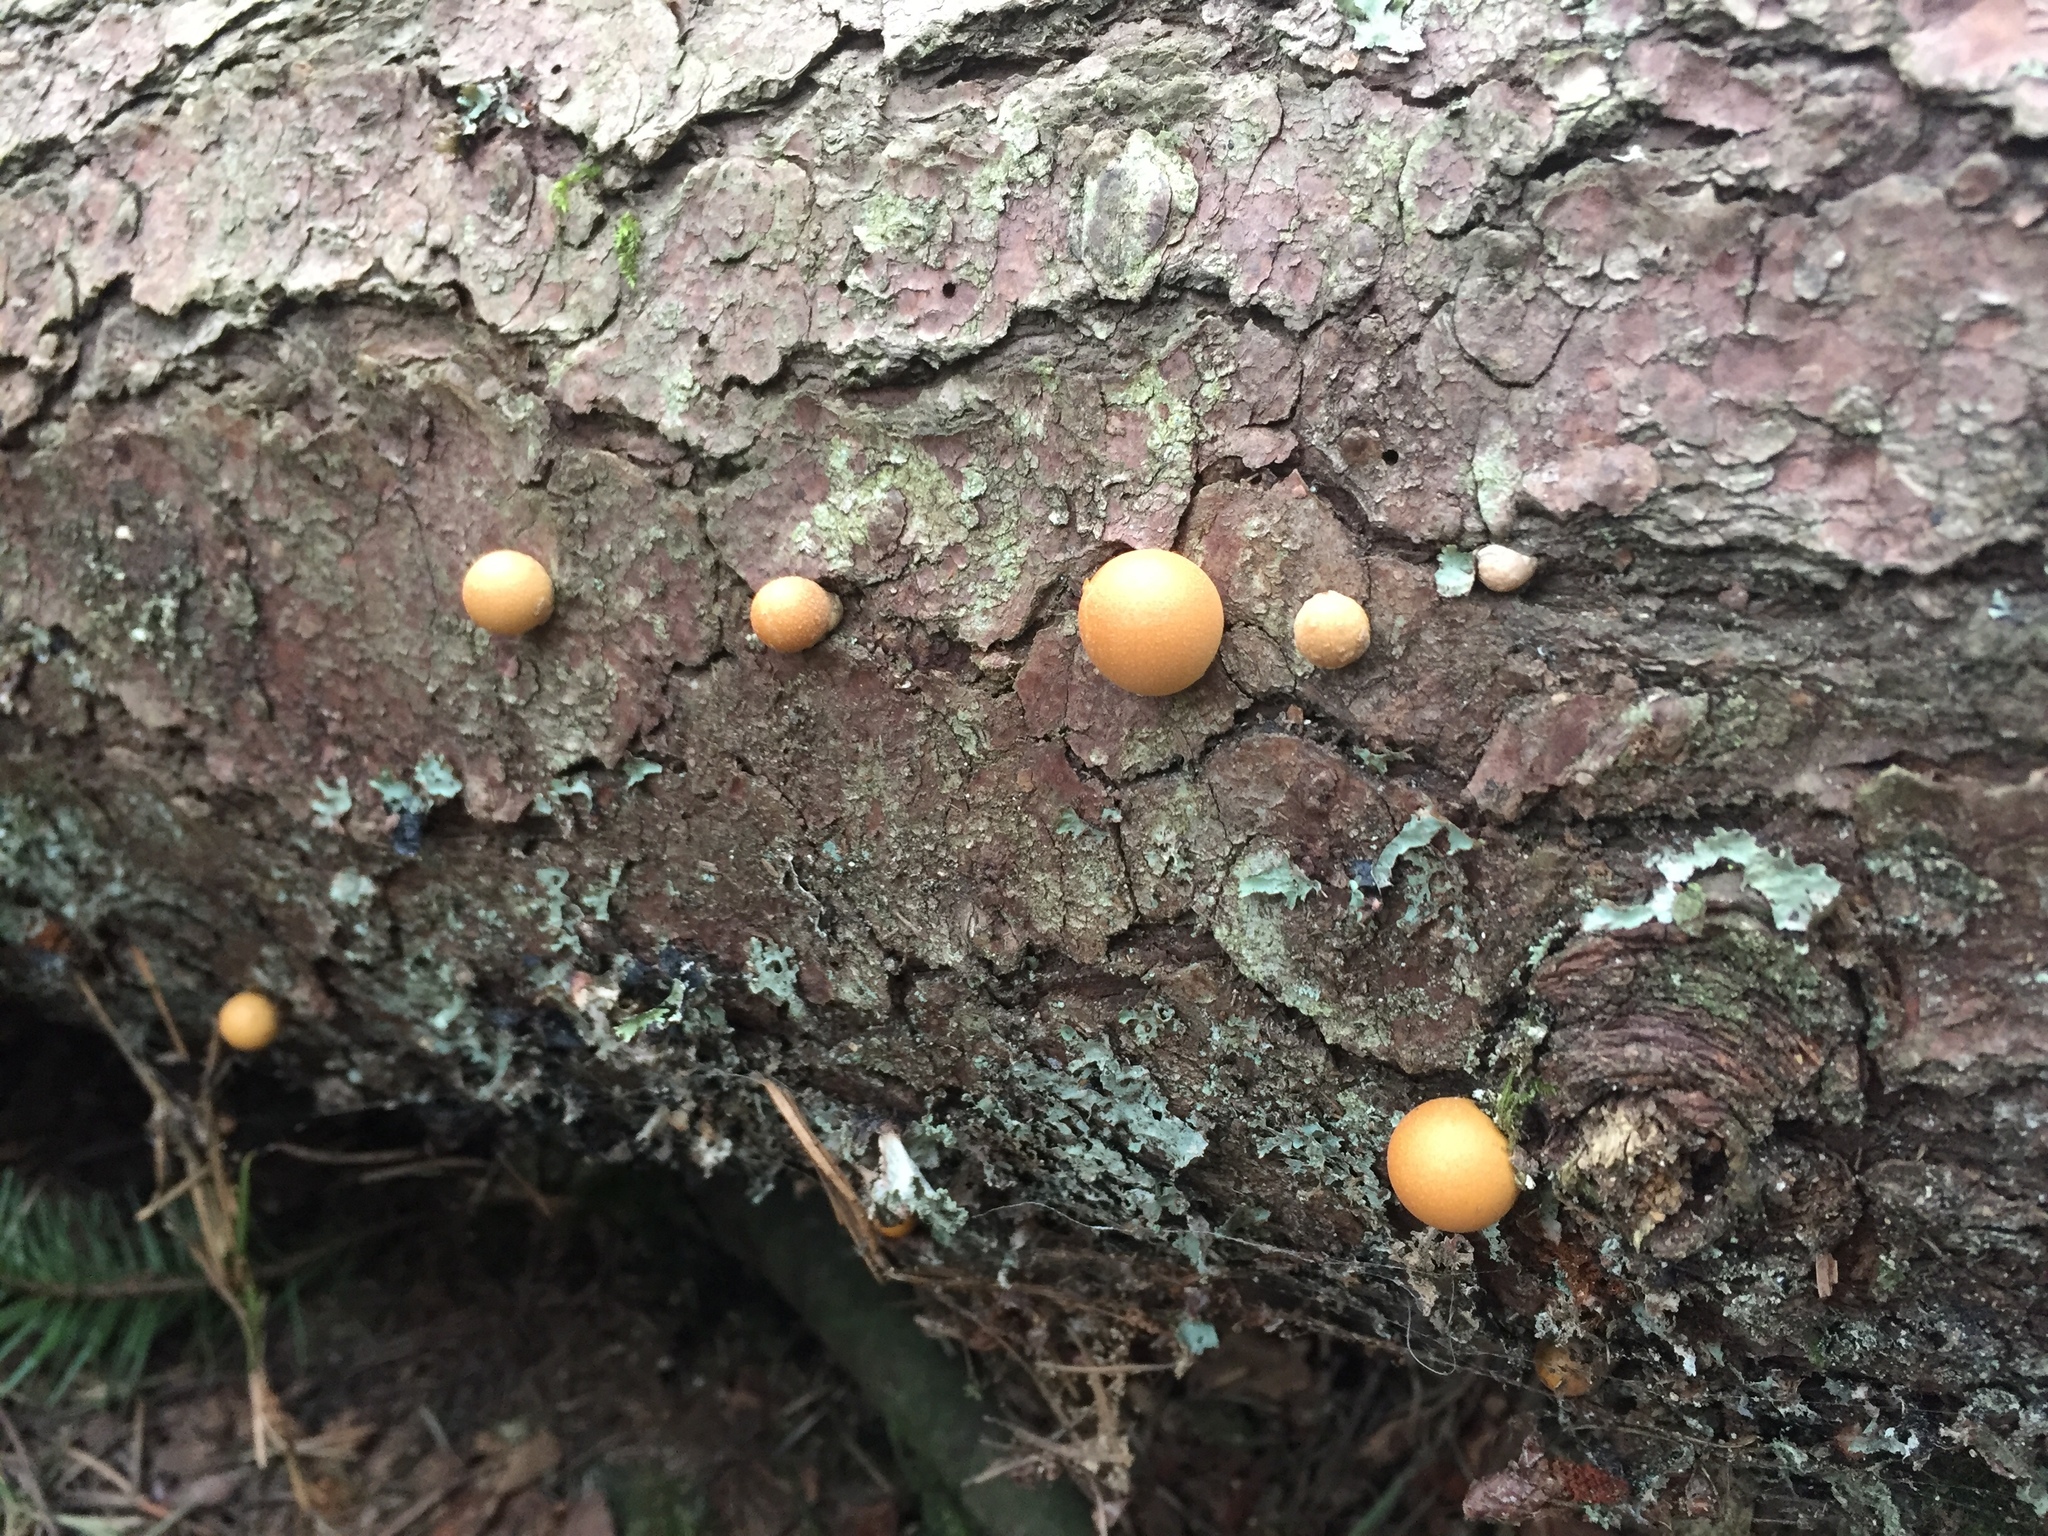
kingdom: Fungi
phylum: Basidiomycota
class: Agaricomycetes
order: Polyporales
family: Polyporaceae
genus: Cryptoporus
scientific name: Cryptoporus volvatus
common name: Veiled polypore
